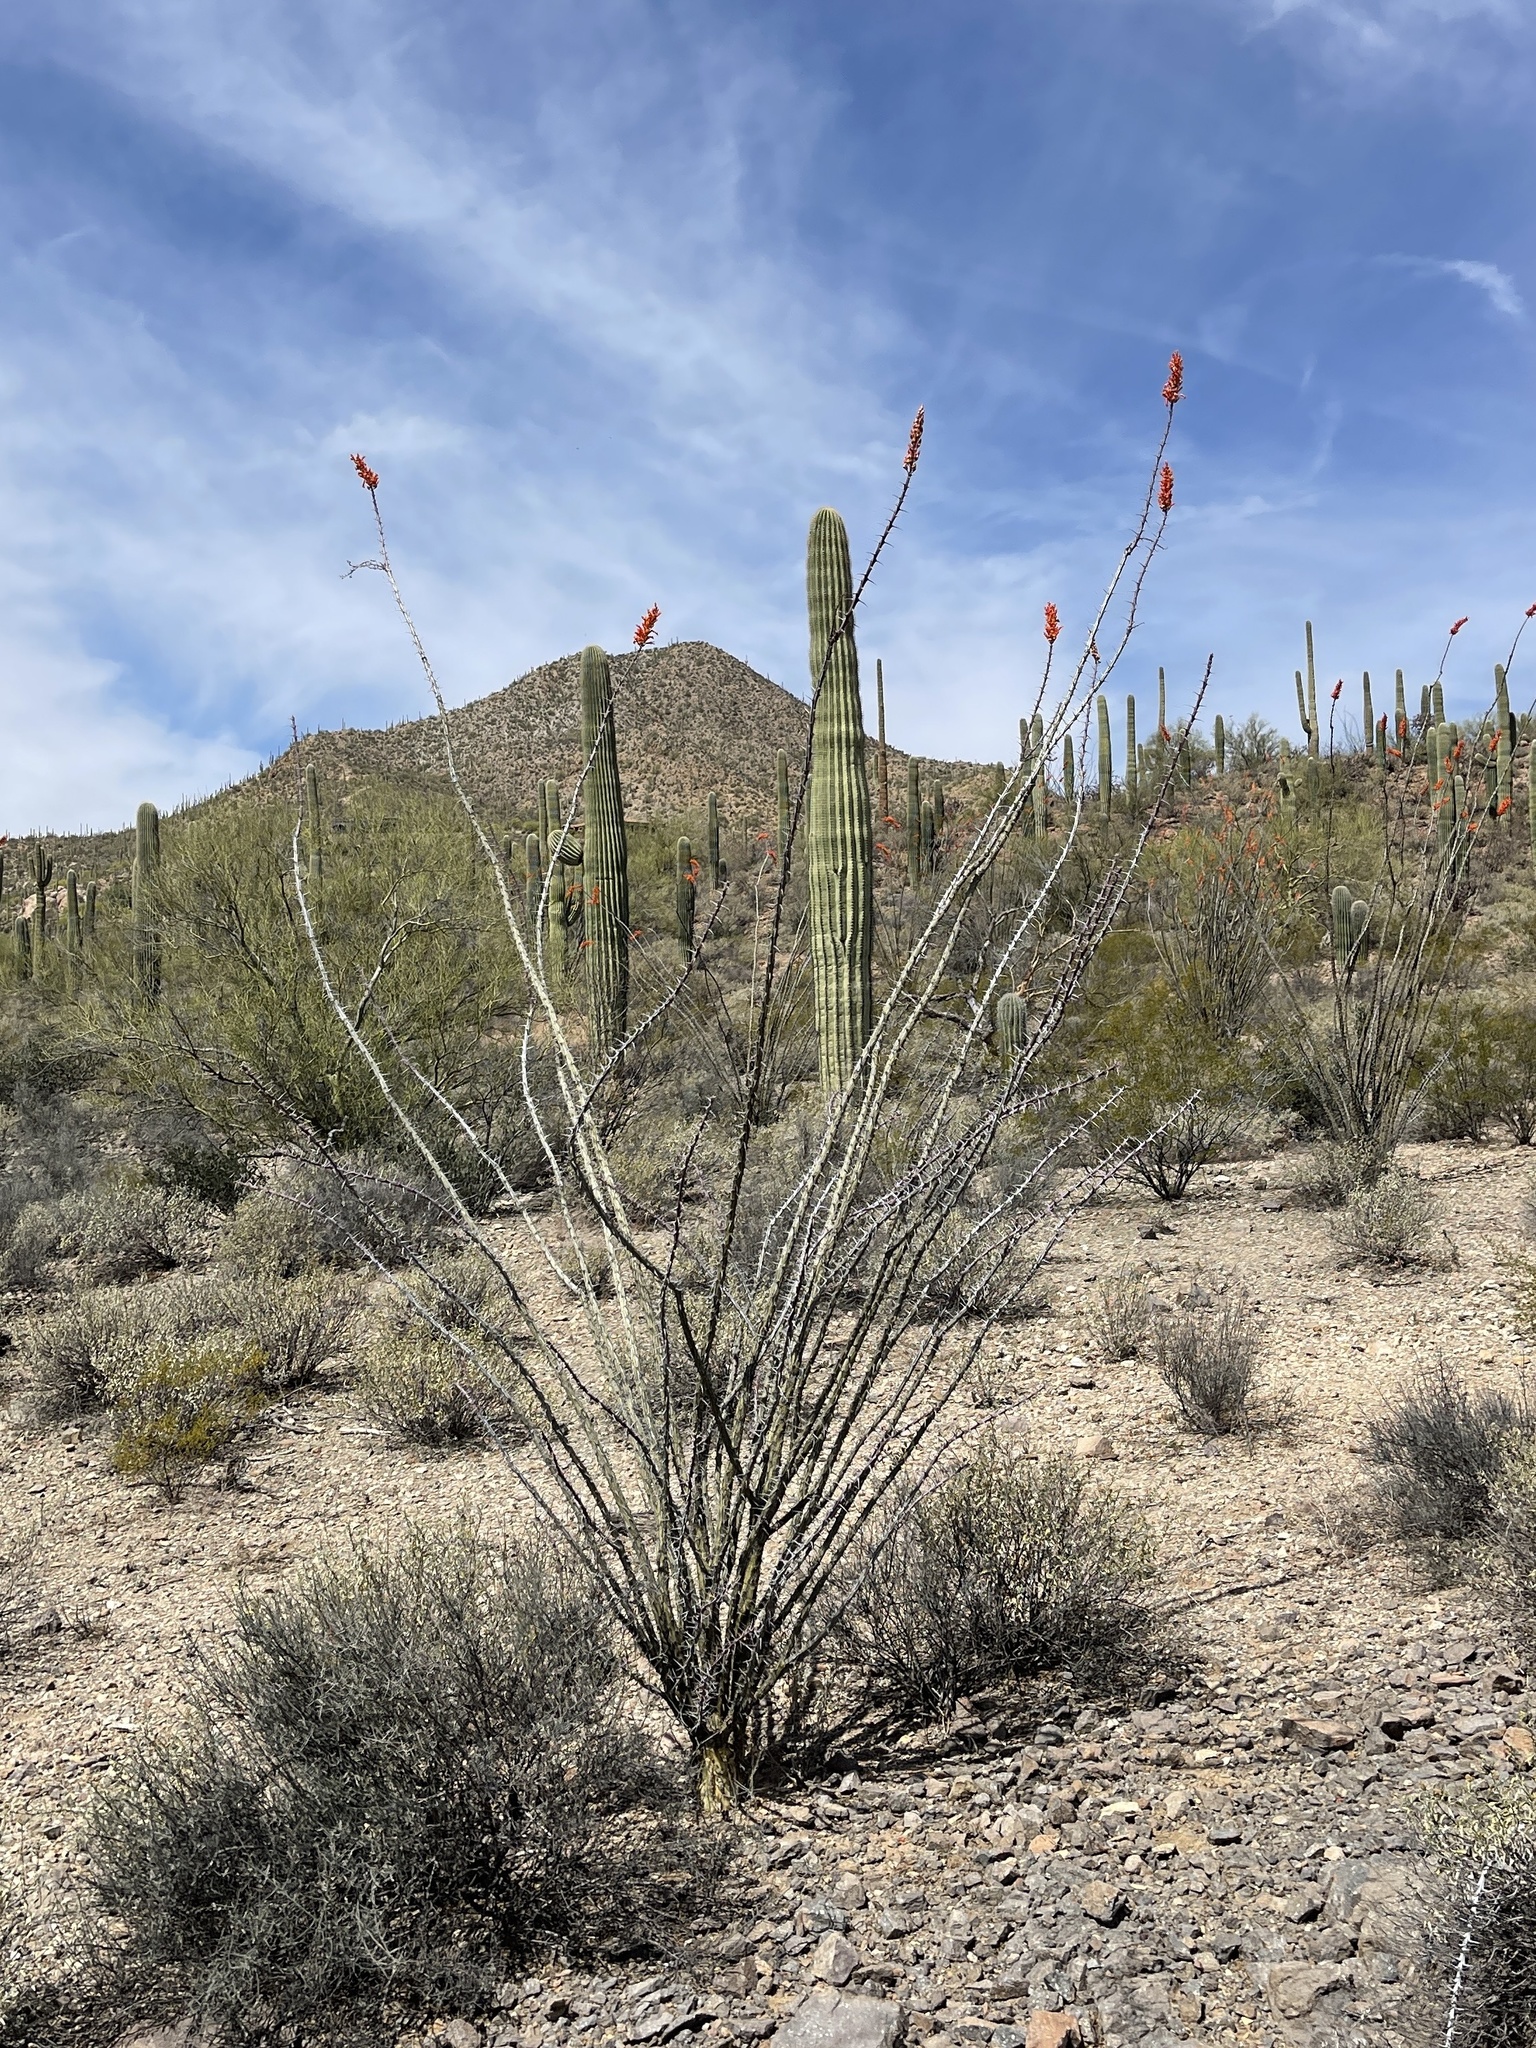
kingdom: Plantae
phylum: Tracheophyta
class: Magnoliopsida
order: Ericales
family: Fouquieriaceae
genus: Fouquieria
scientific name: Fouquieria splendens
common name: Vine-cactus
